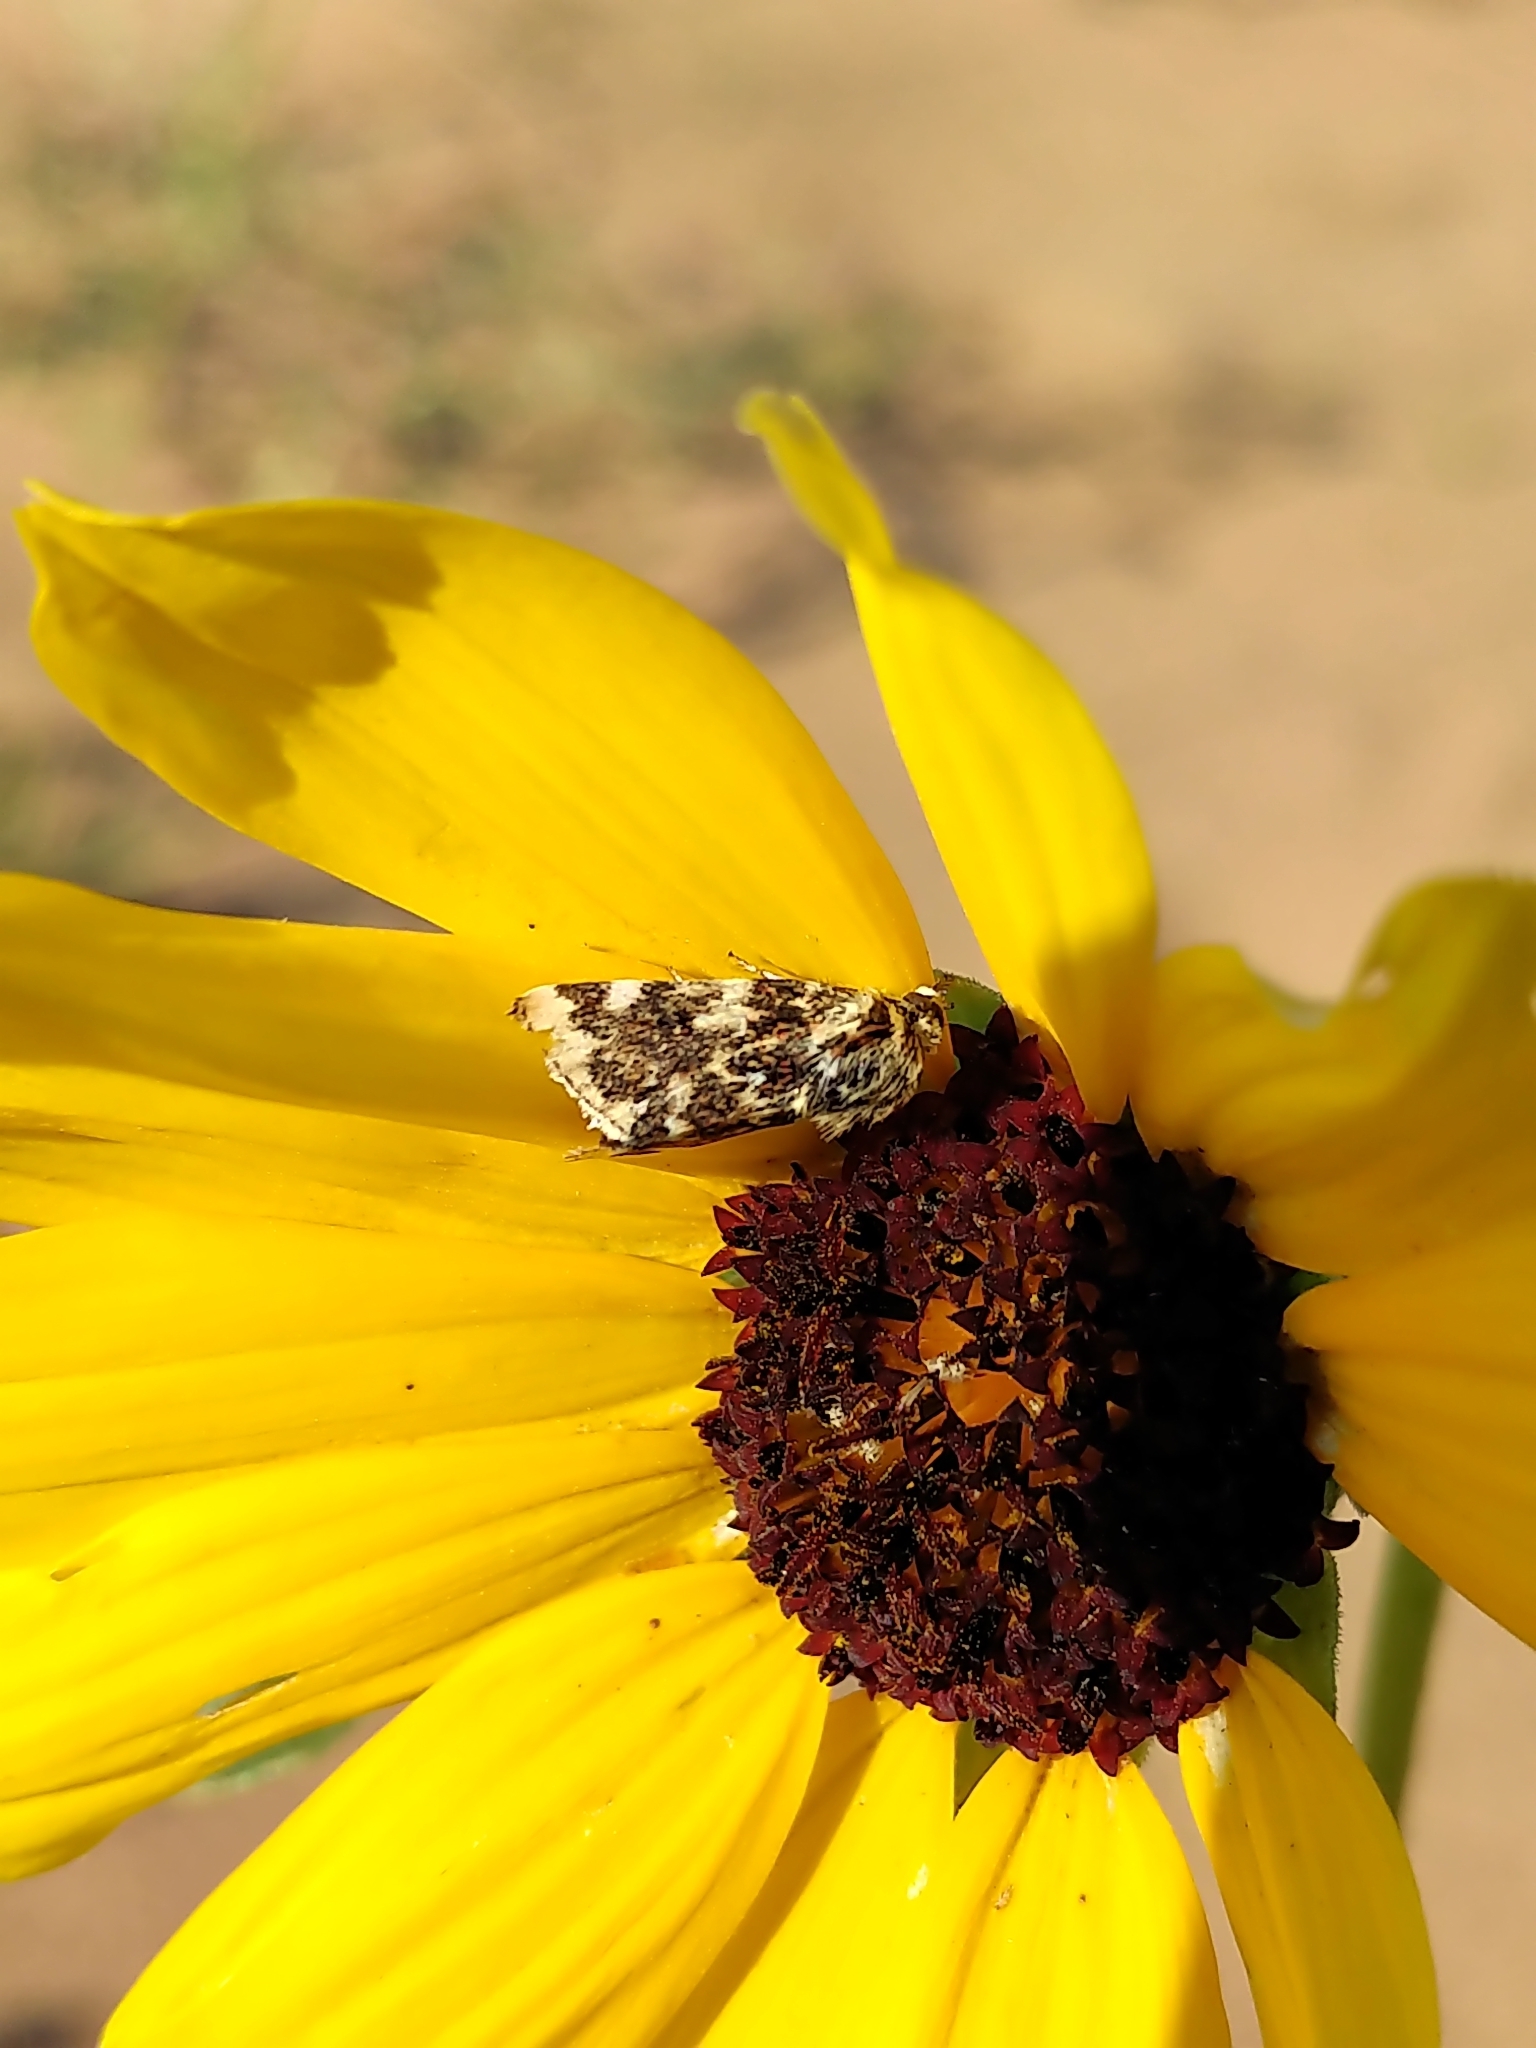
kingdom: Animalia
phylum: Arthropoda
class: Insecta
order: Lepidoptera
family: Noctuidae
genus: Schinia
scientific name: Schinia avemensis
